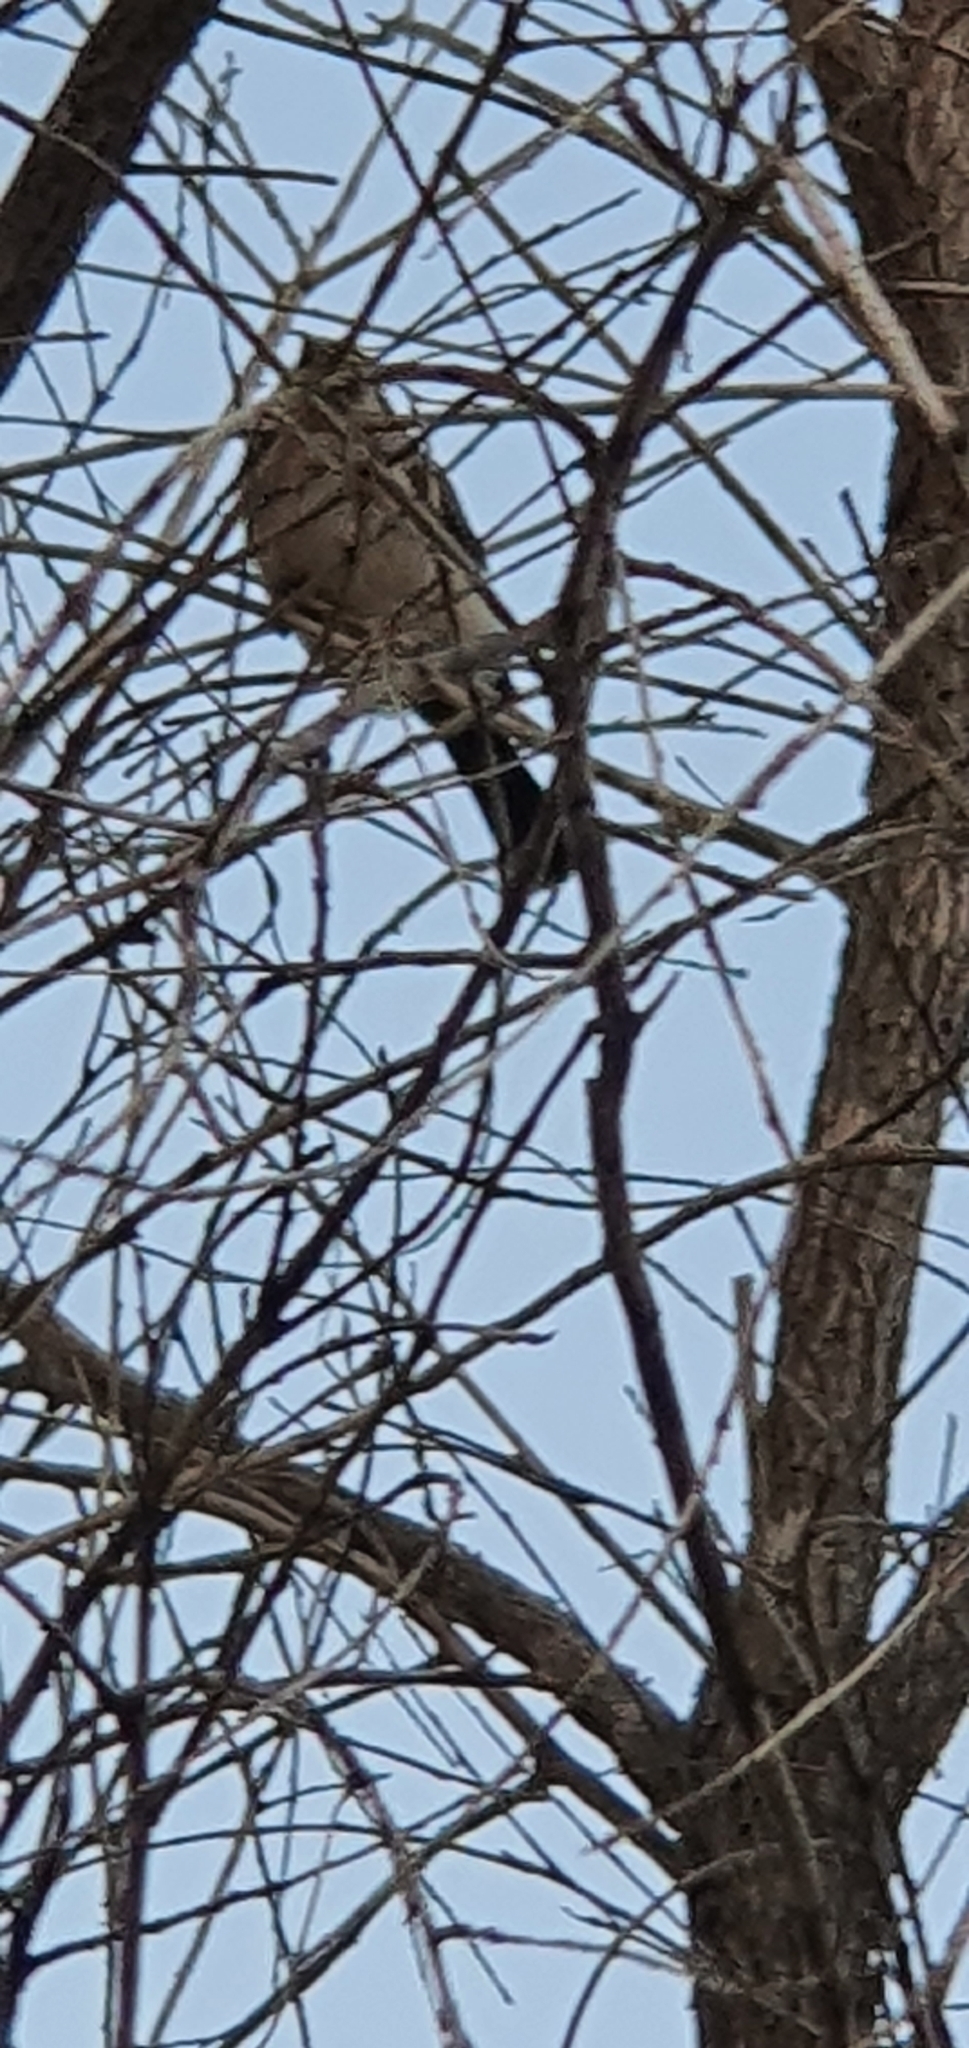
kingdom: Animalia
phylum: Chordata
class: Aves
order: Passeriformes
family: Meliphagidae
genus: Lichmera
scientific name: Lichmera indistincta
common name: Brown honeyeater
